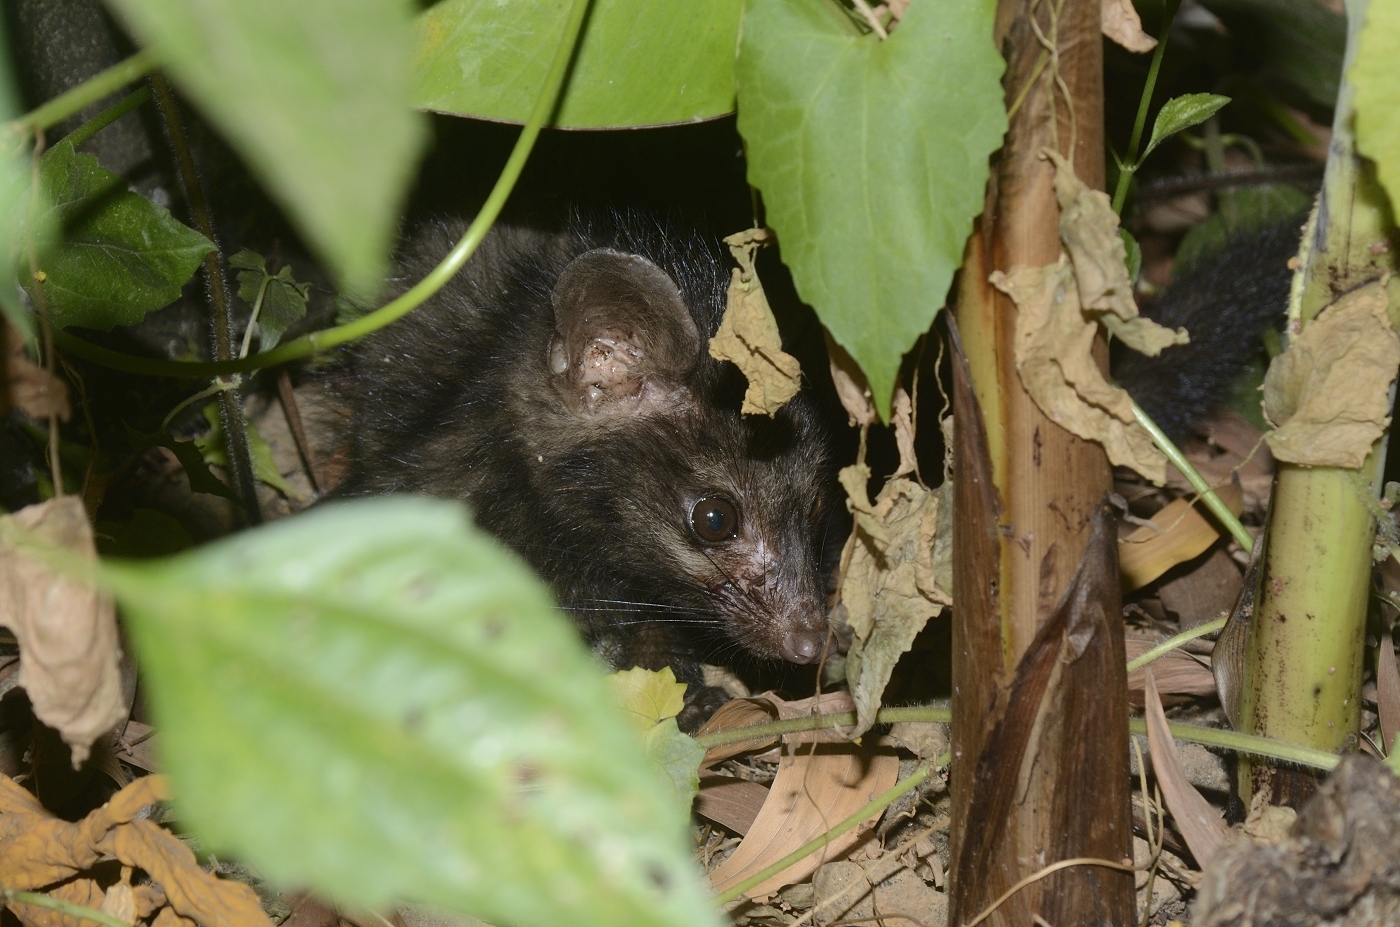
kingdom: Animalia
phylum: Chordata
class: Mammalia
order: Carnivora
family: Viverridae
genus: Paradoxurus
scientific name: Paradoxurus hermaphroditus
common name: Common palm civet
